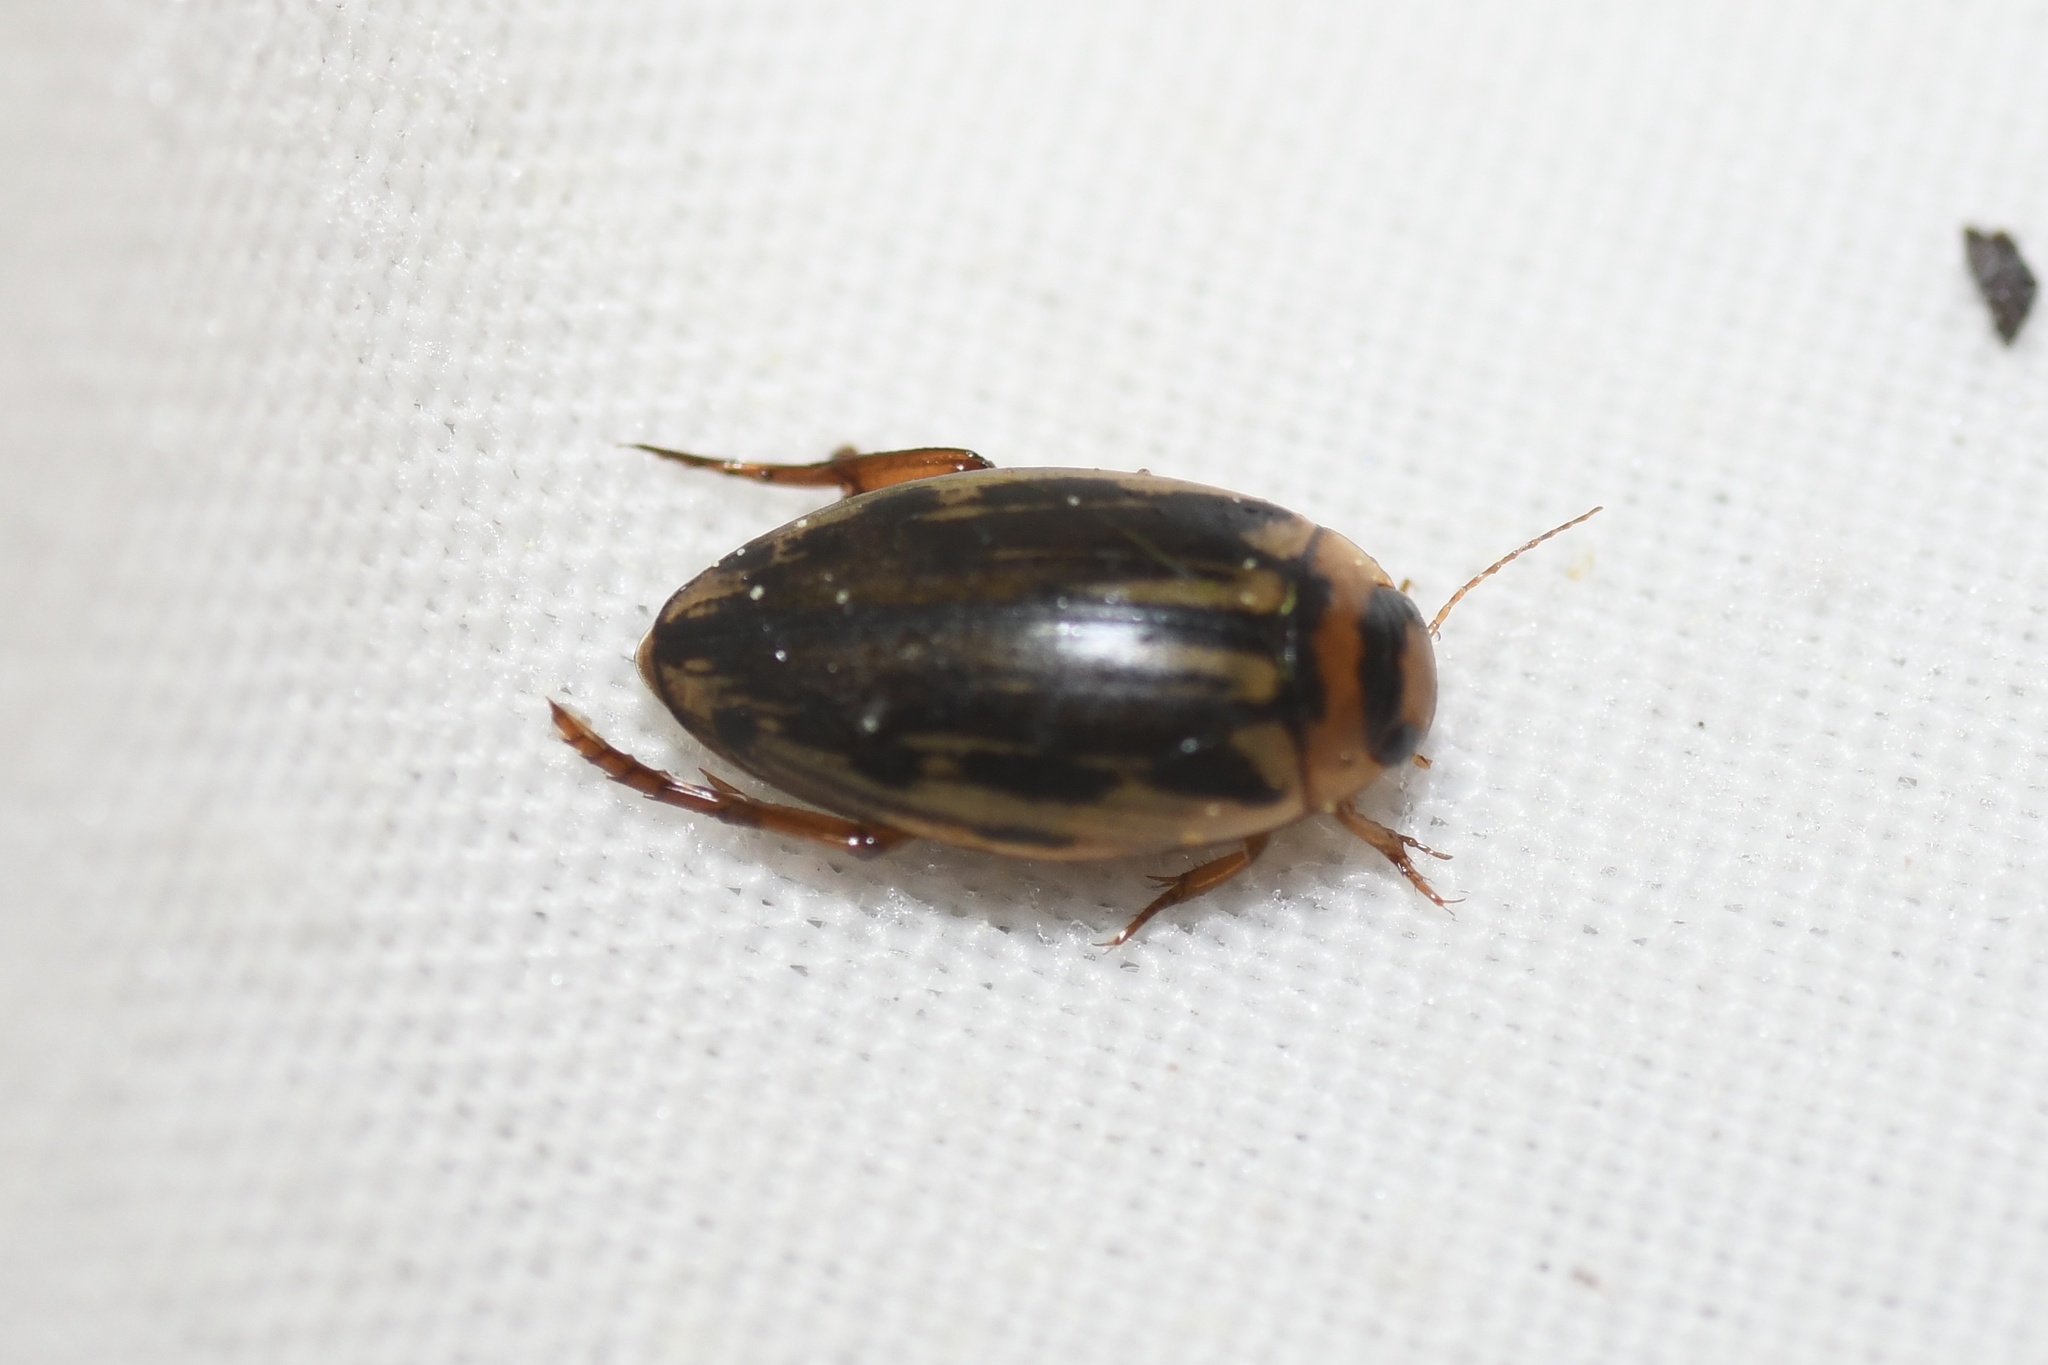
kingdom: Animalia
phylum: Arthropoda
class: Insecta
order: Coleoptera
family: Dytiscidae
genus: Coptotomus
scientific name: Coptotomus longulus
